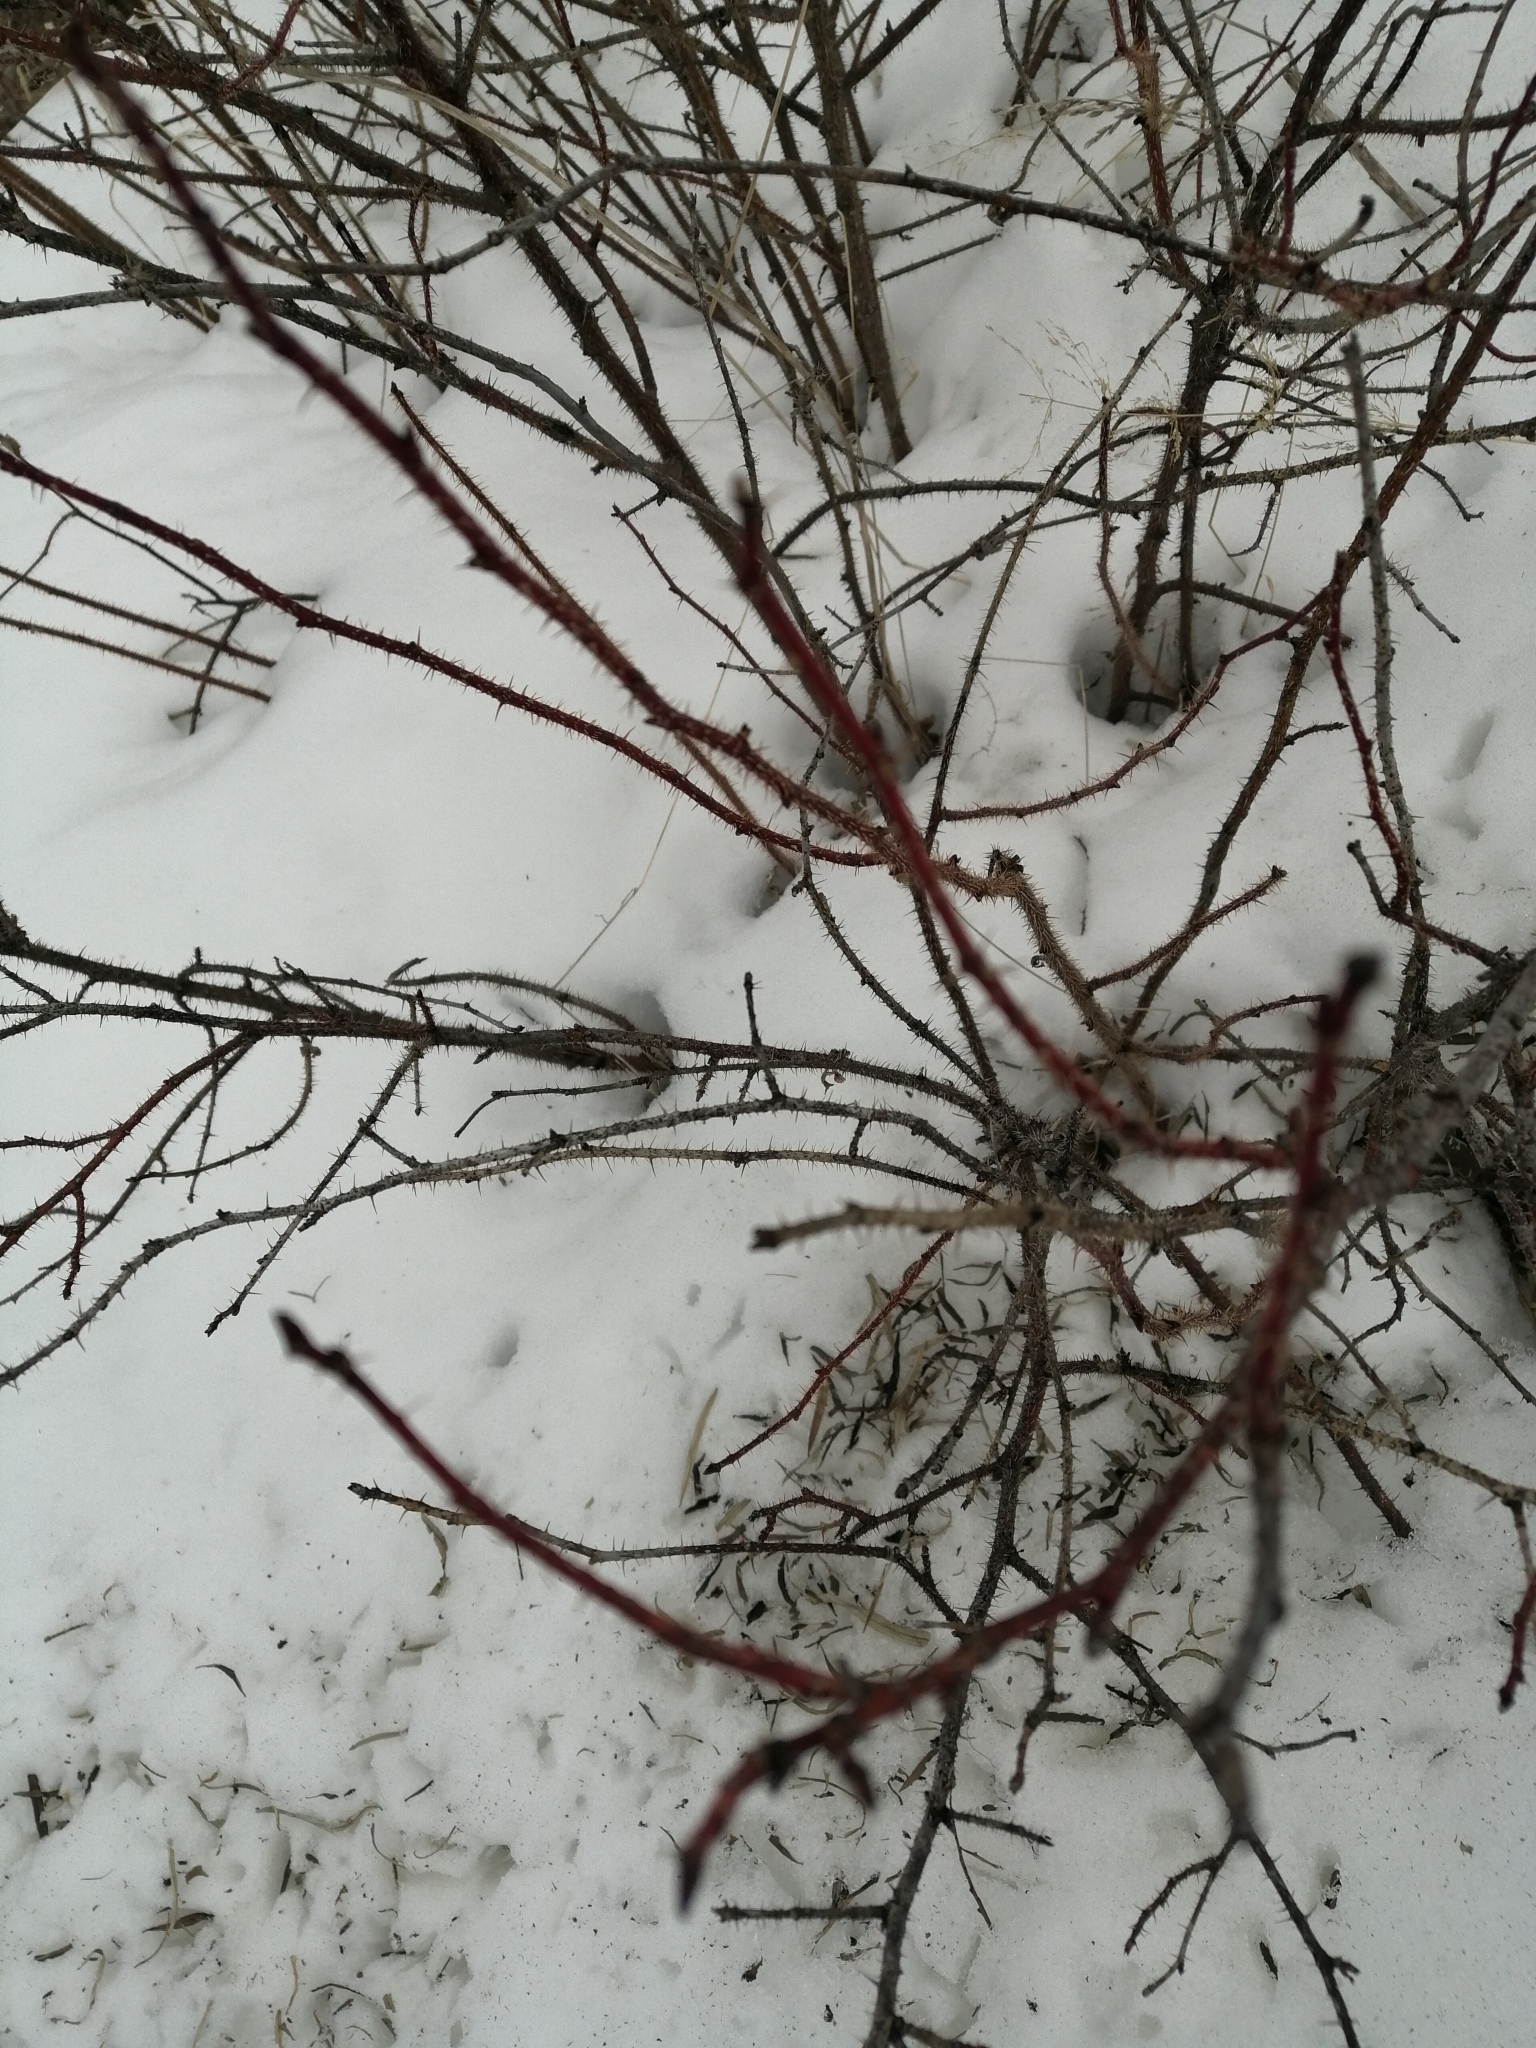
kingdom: Plantae
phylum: Tracheophyta
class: Magnoliopsida
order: Rosales
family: Rosaceae
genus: Rosa
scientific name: Rosa acicularis
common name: Prickly rose
